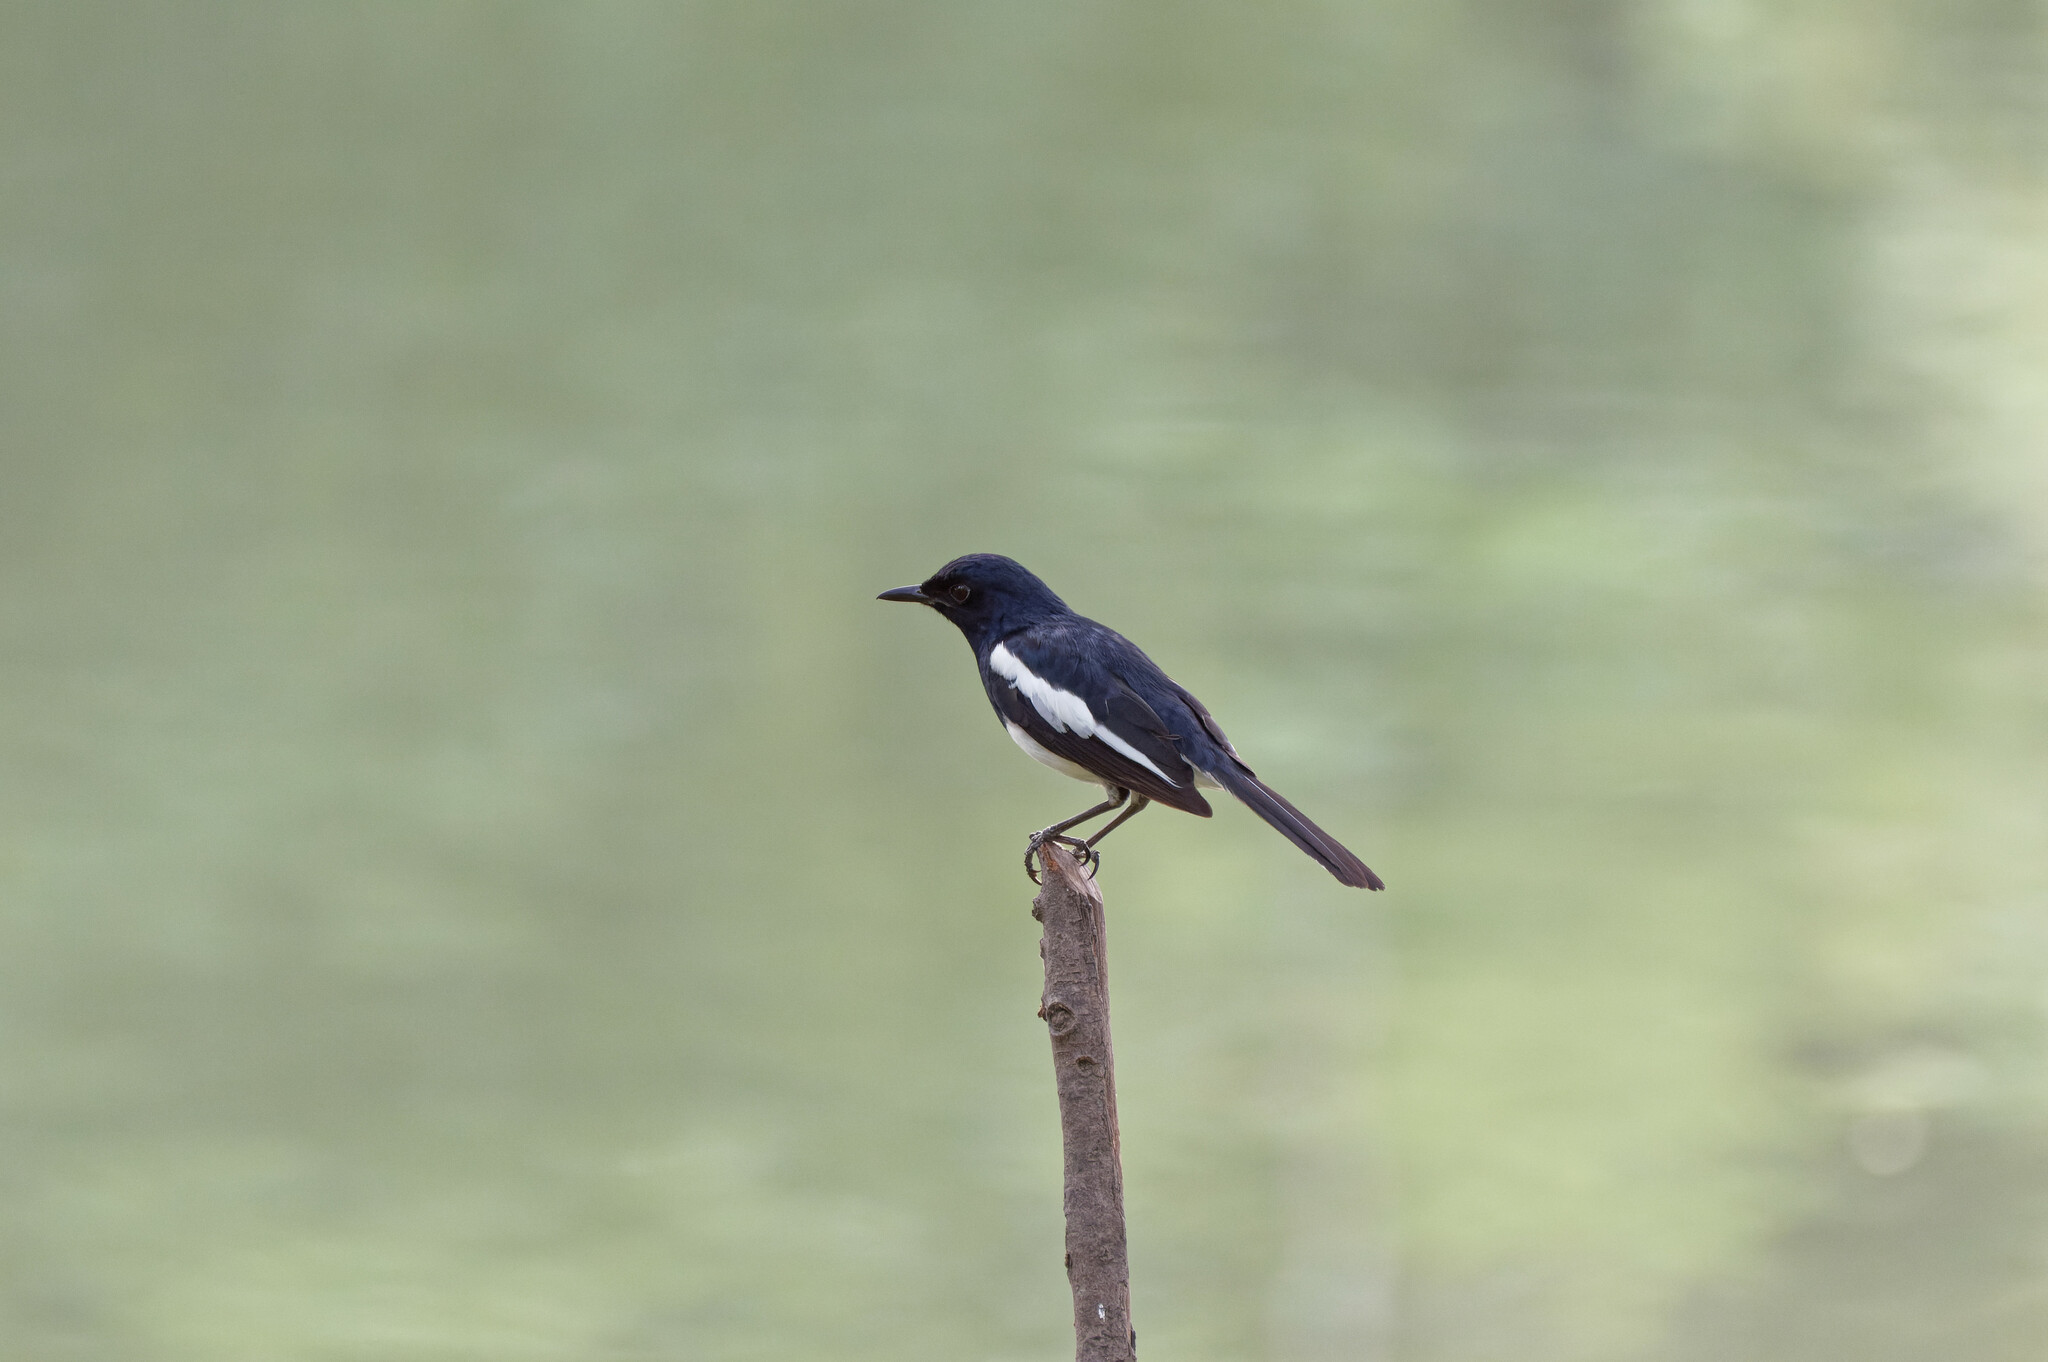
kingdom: Animalia
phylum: Chordata
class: Aves
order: Passeriformes
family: Muscicapidae
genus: Copsychus
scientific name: Copsychus saularis
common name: Oriental magpie-robin
